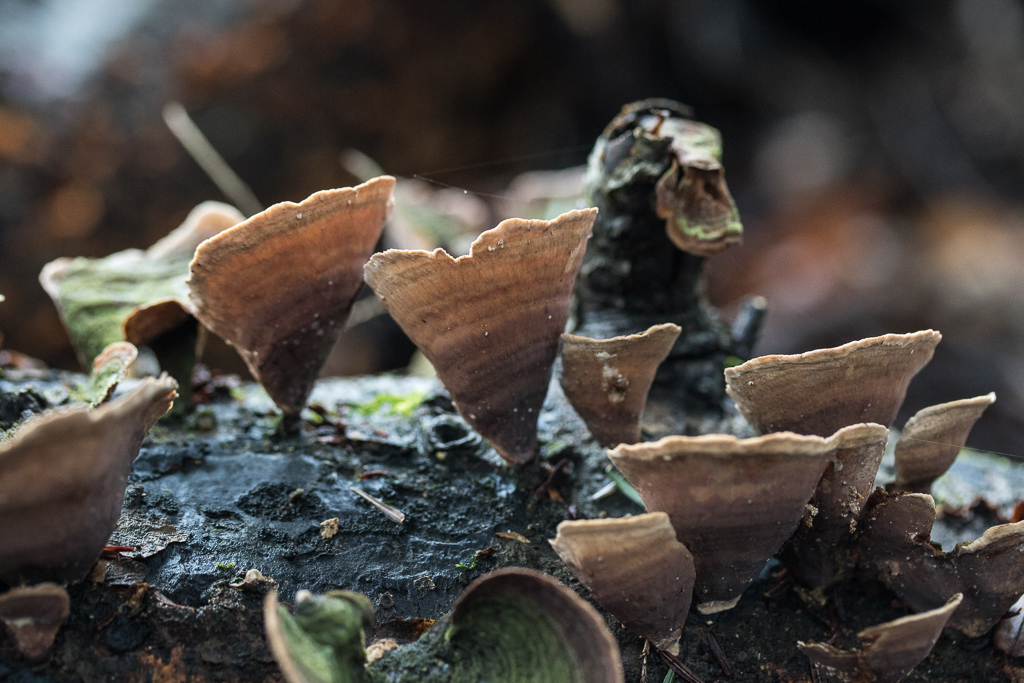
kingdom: Fungi
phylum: Basidiomycota
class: Agaricomycetes
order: Russulales
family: Stereaceae
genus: Stereum
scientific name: Stereum ostrea
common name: False turkeytail
